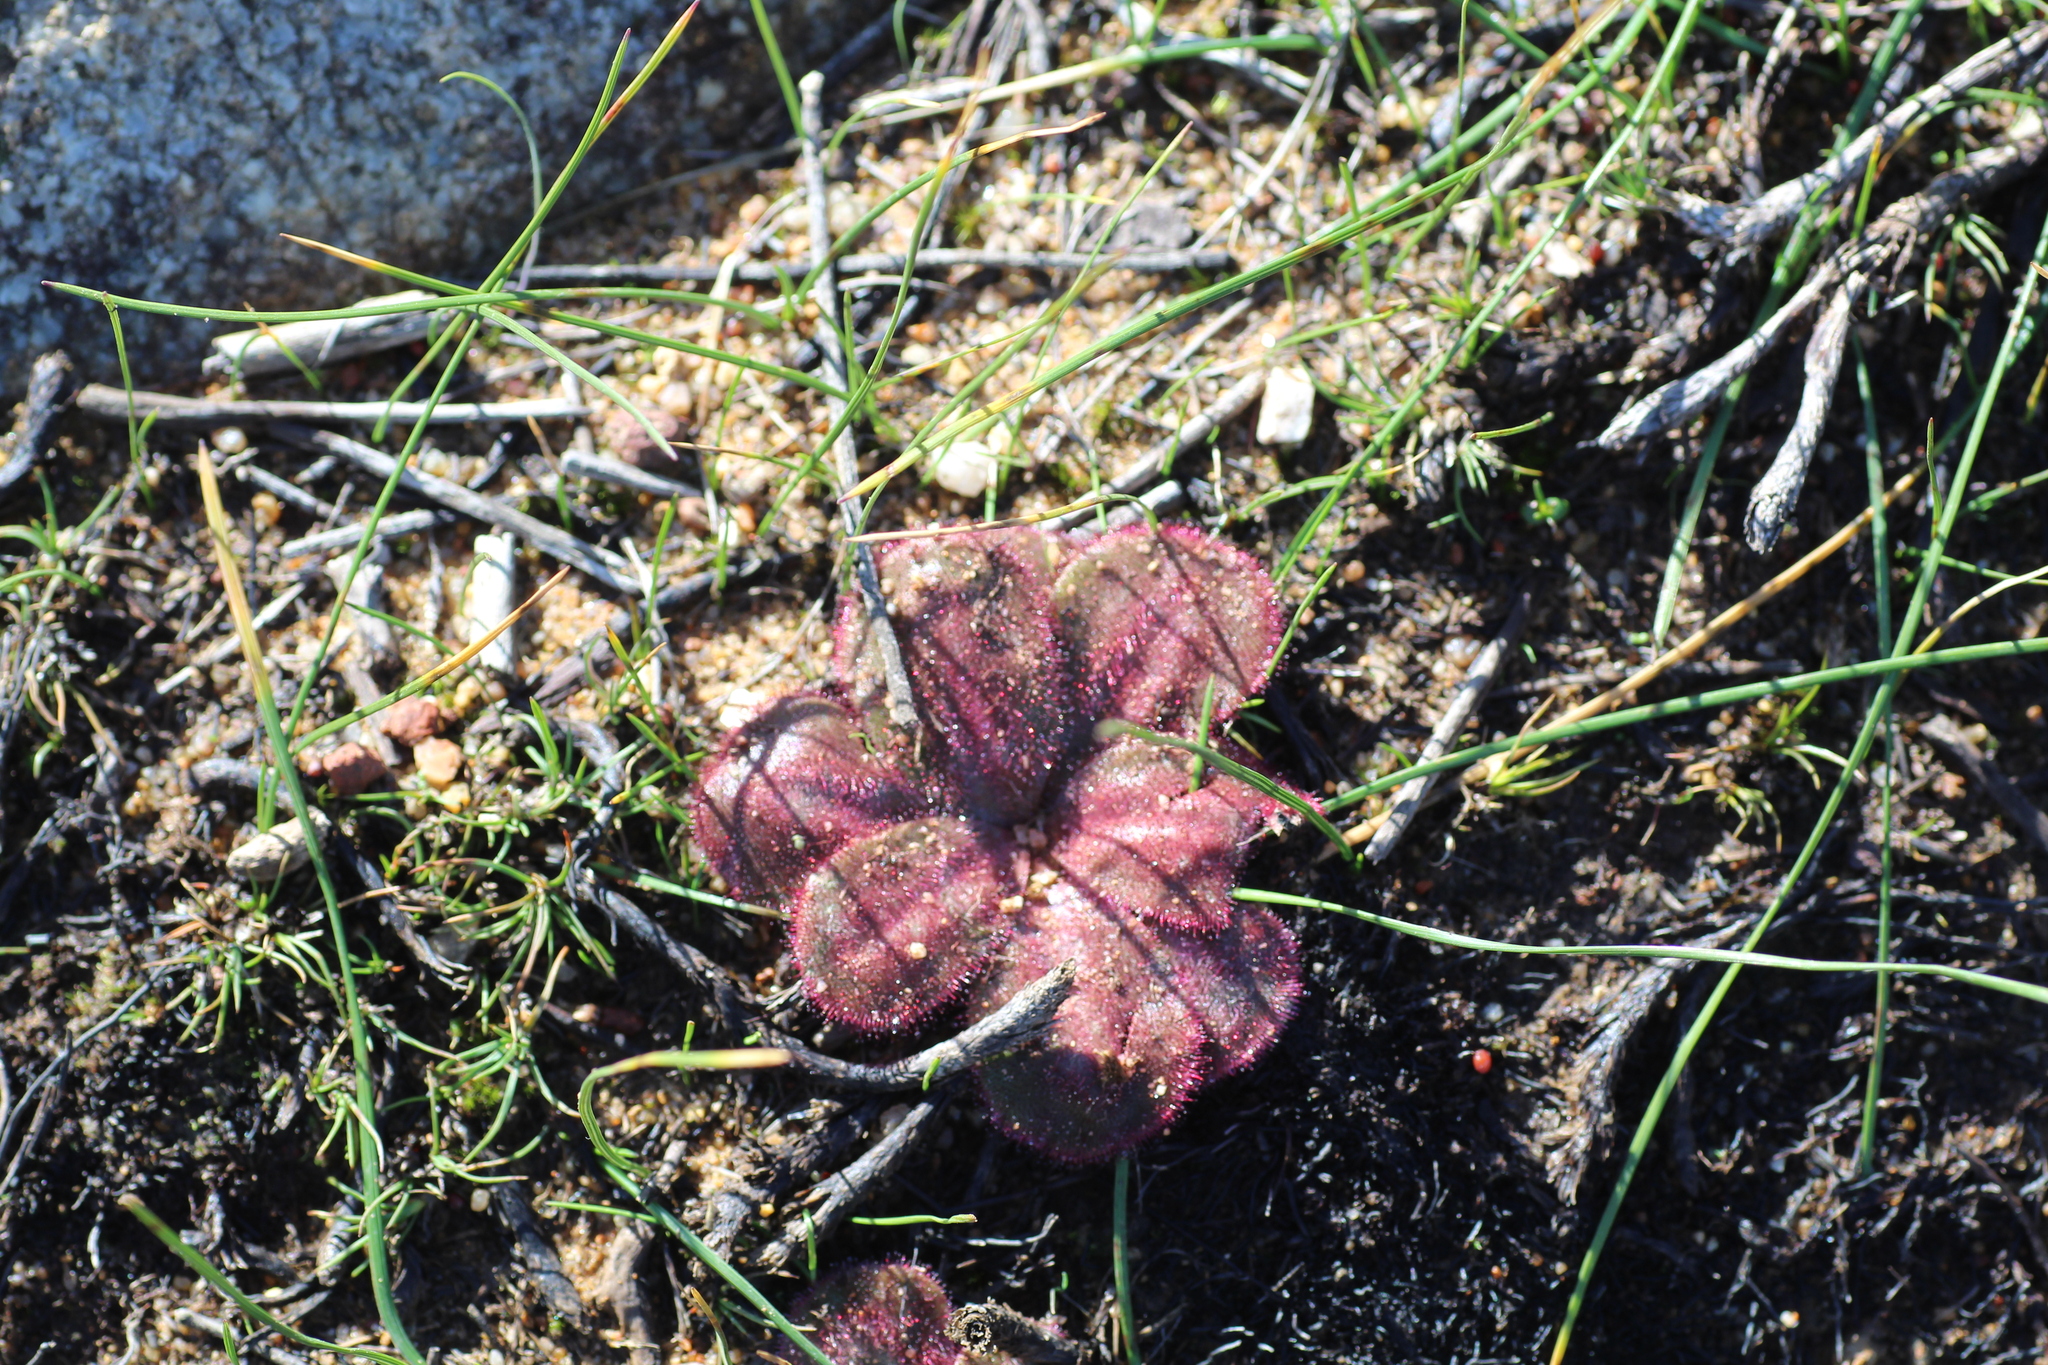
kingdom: Plantae
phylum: Tracheophyta
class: Magnoliopsida
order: Caryophyllales
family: Droseraceae
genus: Drosera
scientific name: Drosera erythrorhiza
